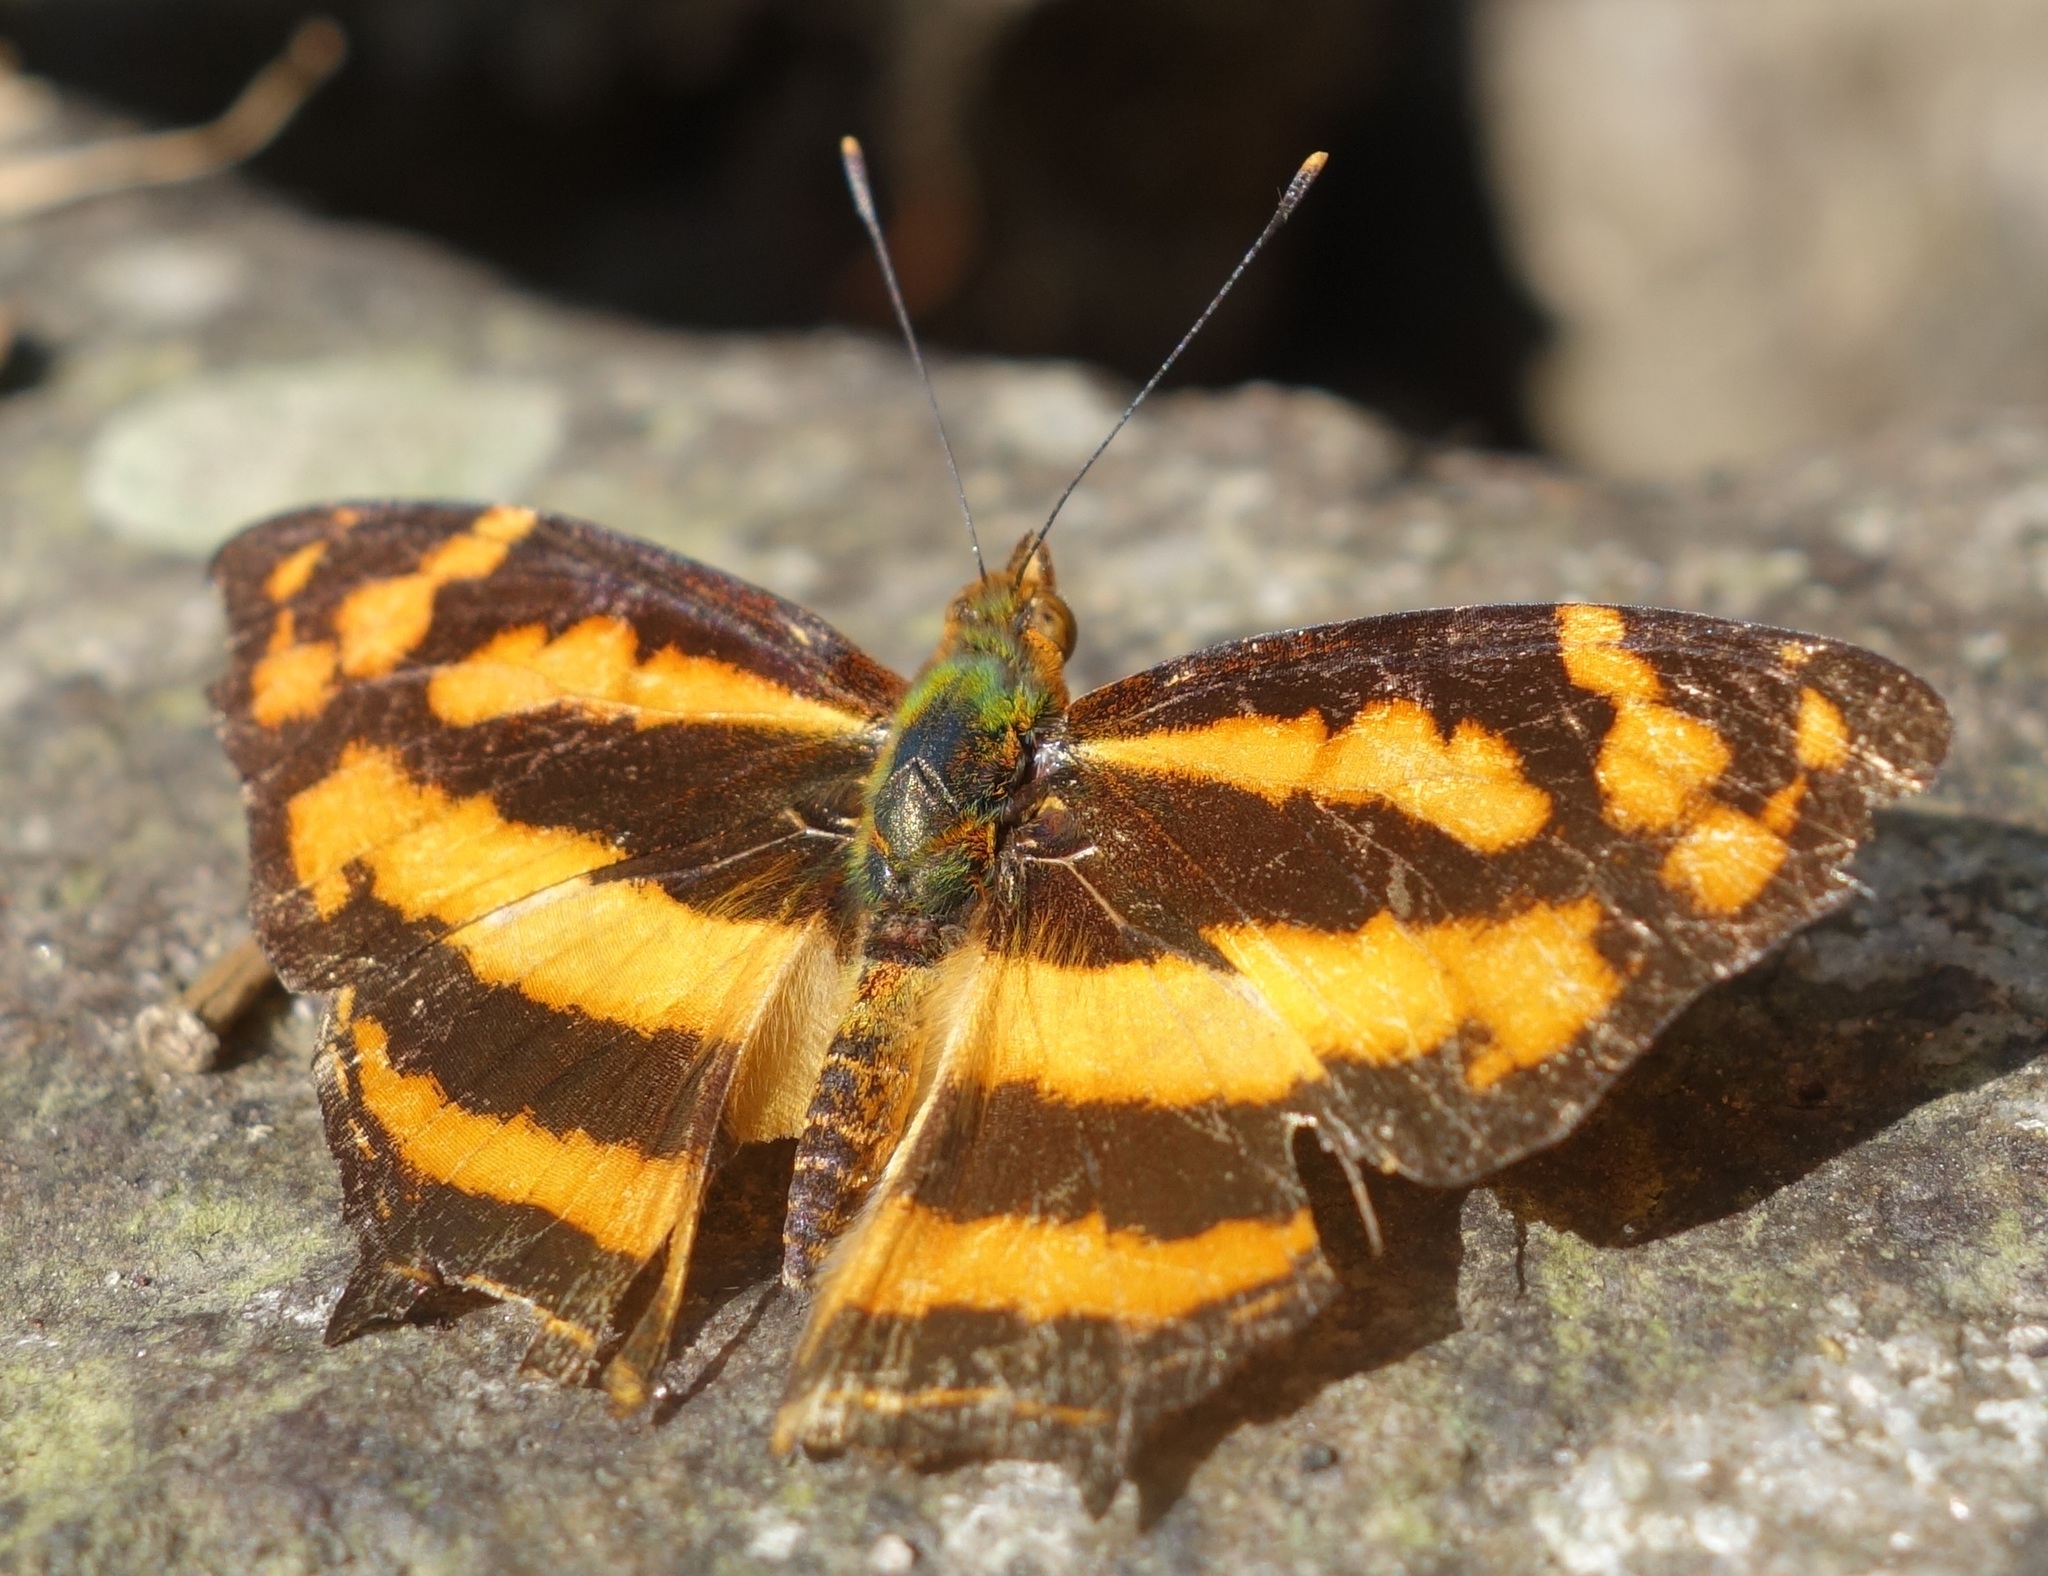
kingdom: Animalia
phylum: Arthropoda
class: Insecta
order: Lepidoptera
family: Nymphalidae
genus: Symbrenthia
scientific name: Symbrenthia hypselis
